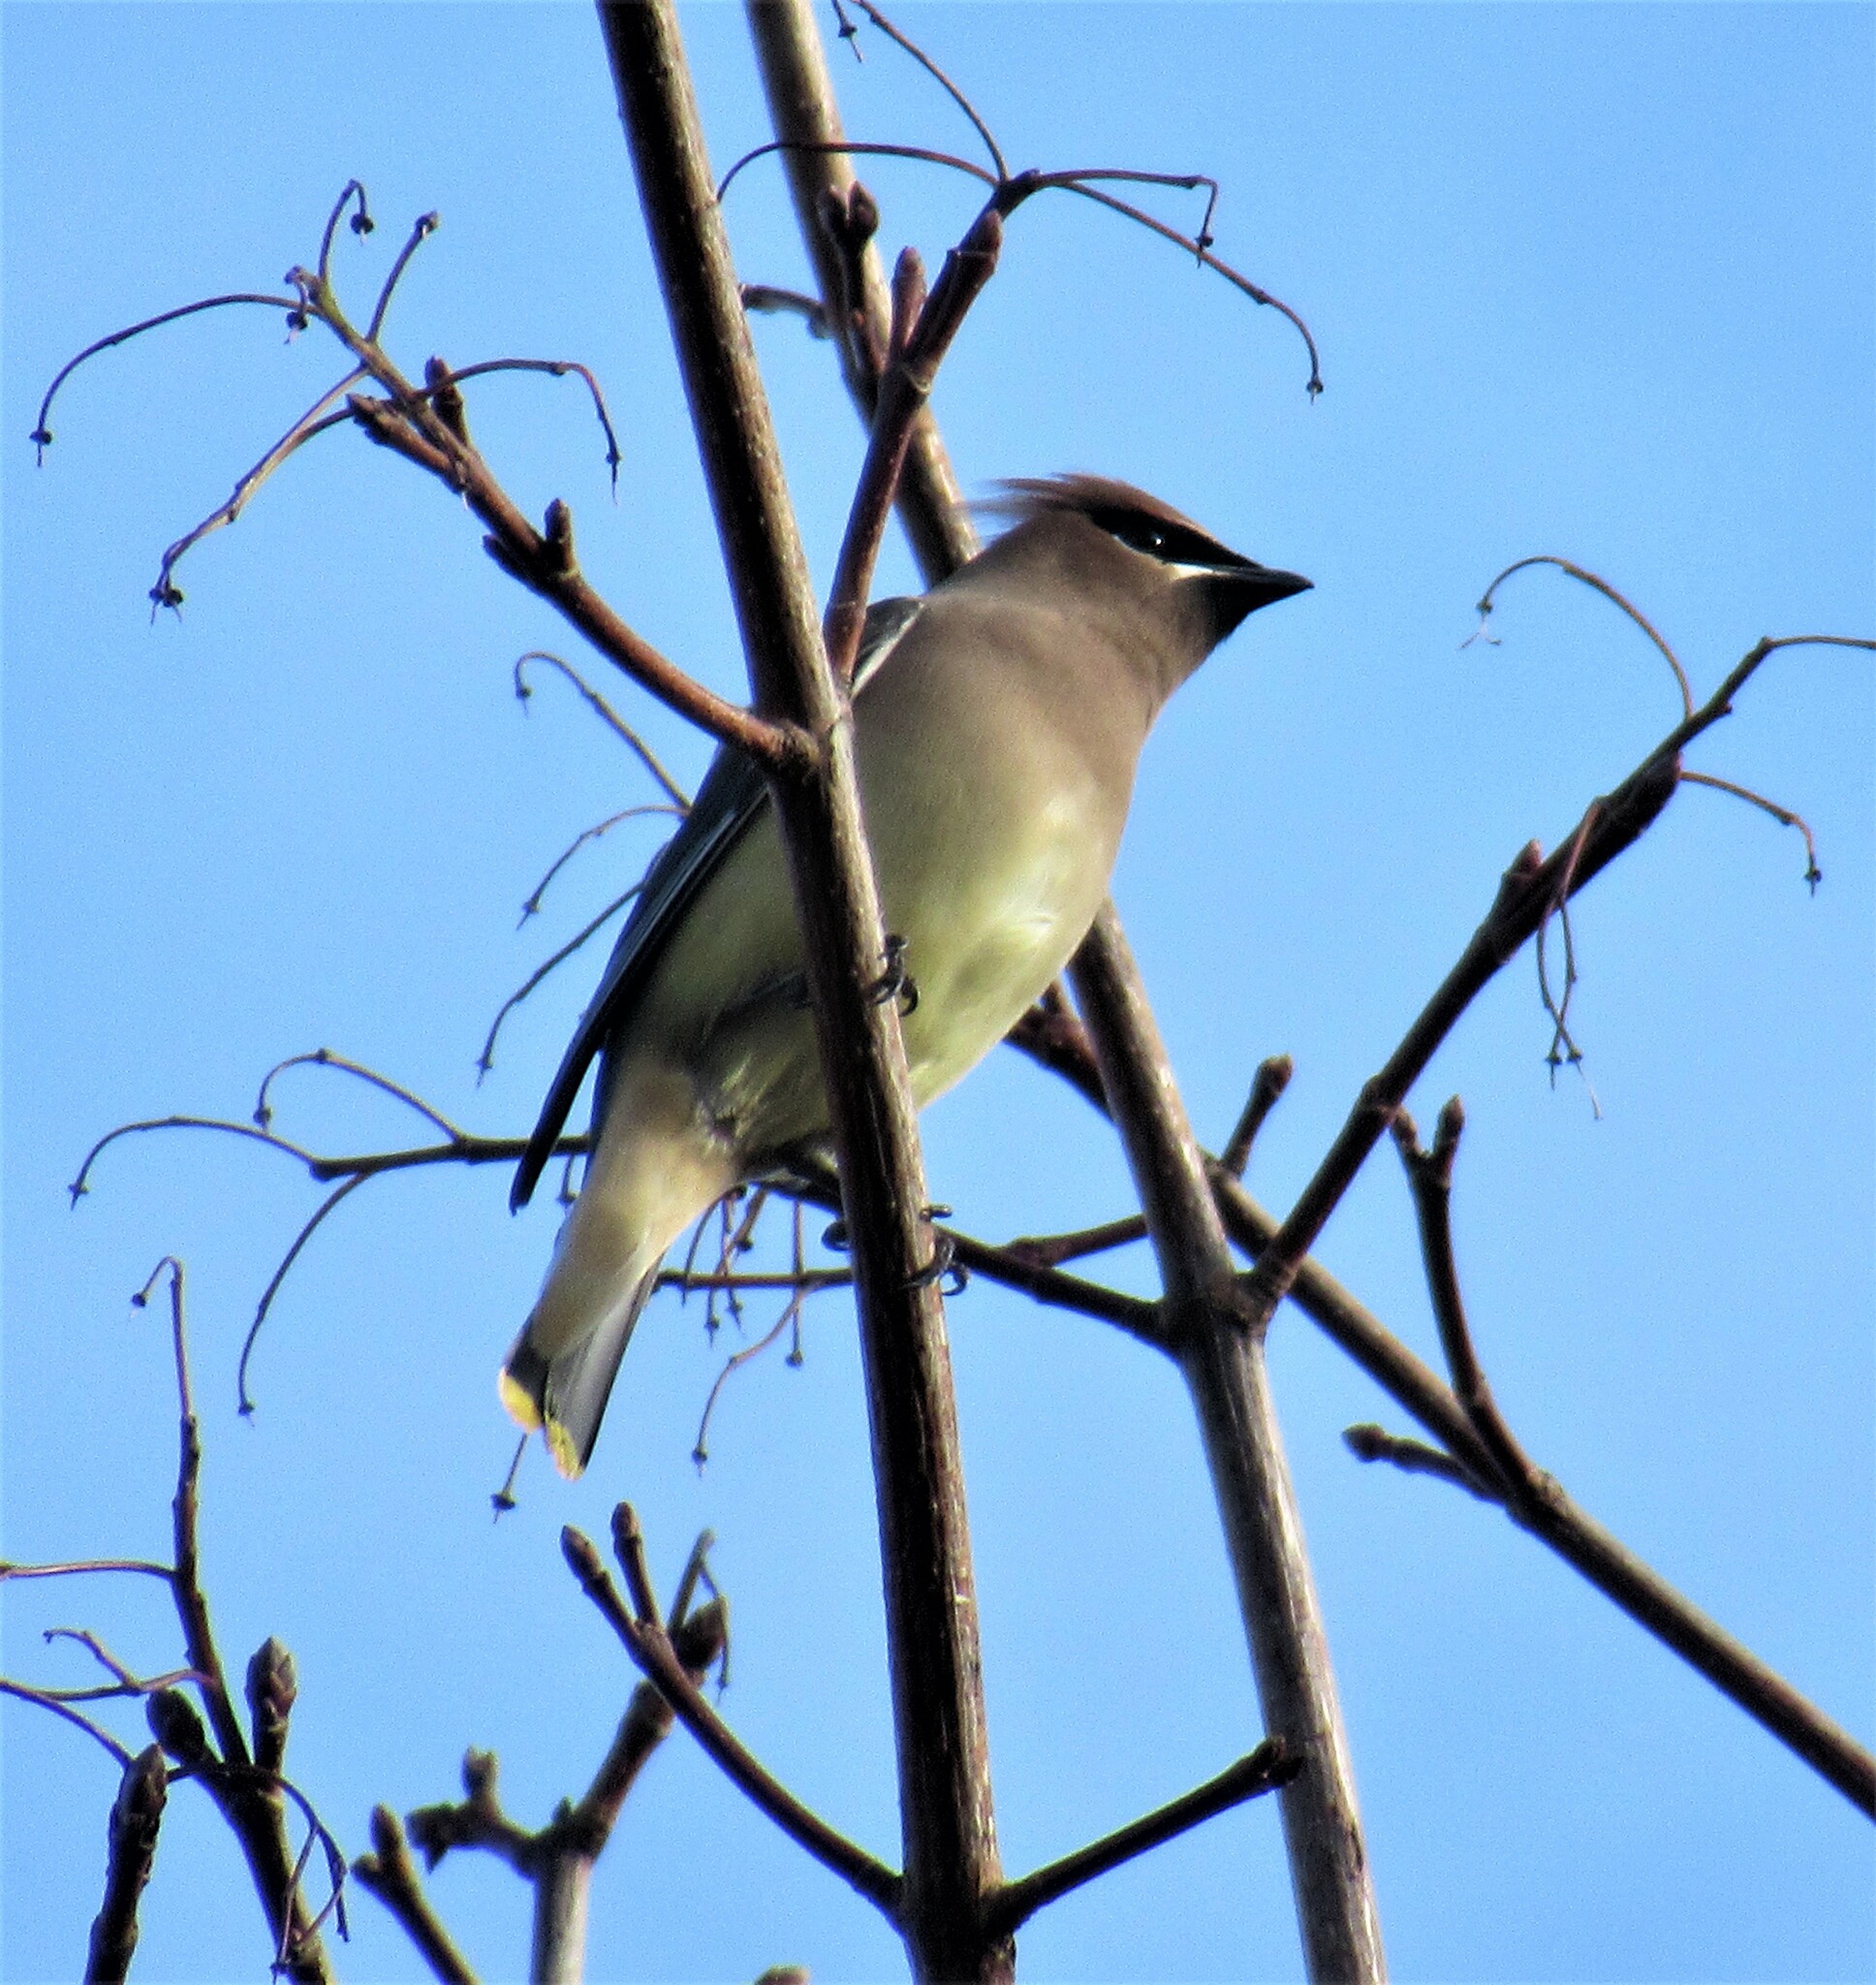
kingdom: Animalia
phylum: Chordata
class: Aves
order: Passeriformes
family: Bombycillidae
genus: Bombycilla
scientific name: Bombycilla cedrorum
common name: Cedar waxwing
